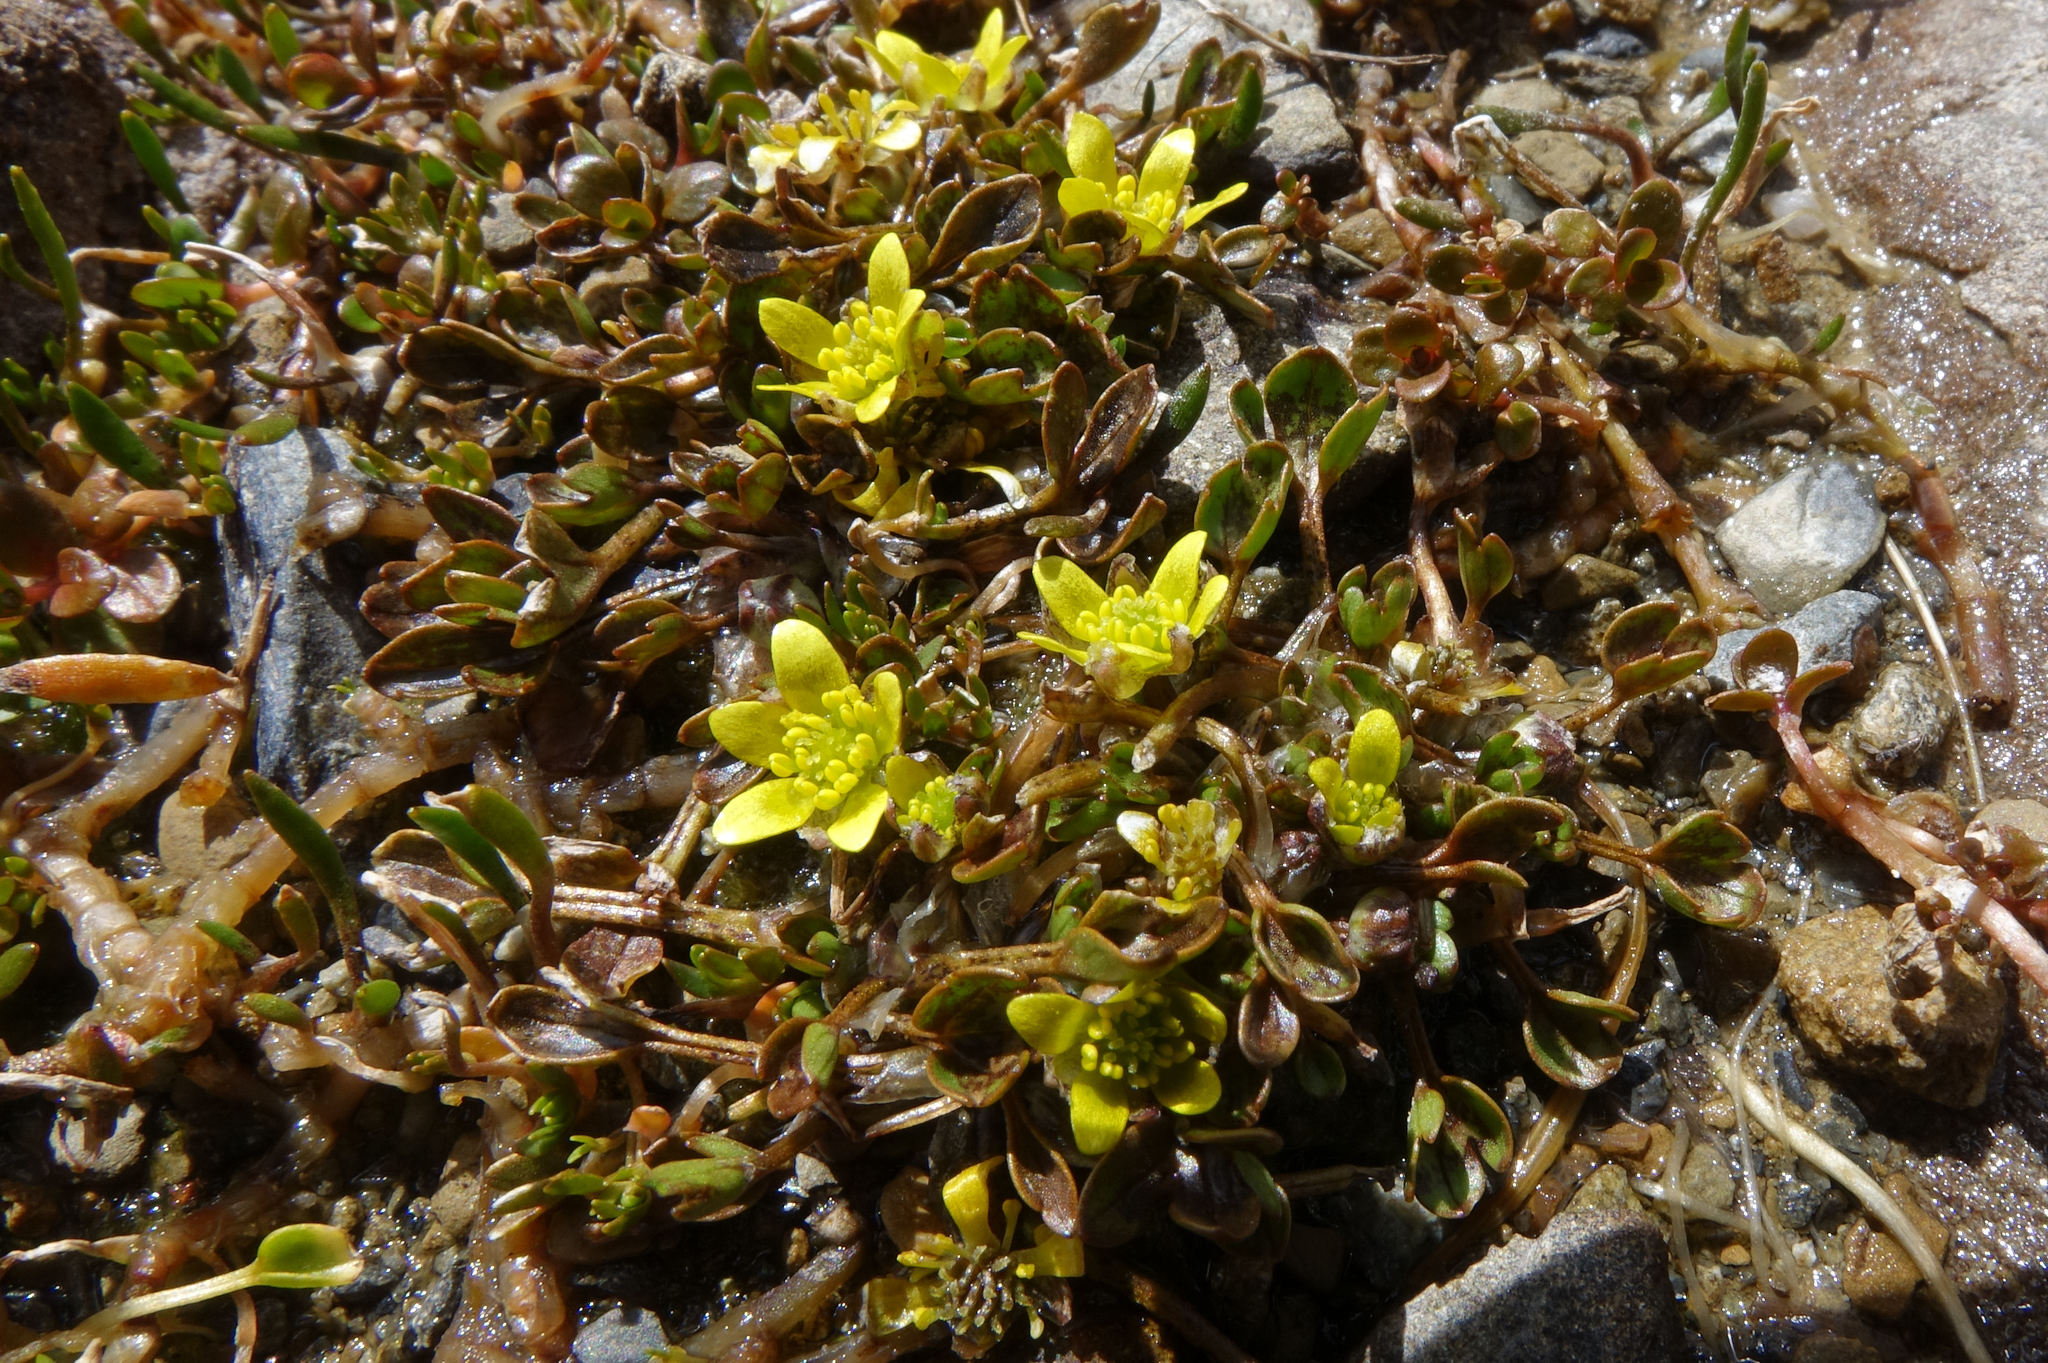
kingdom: Plantae
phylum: Tracheophyta
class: Magnoliopsida
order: Ranunculales
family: Ranunculaceae
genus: Ranunculus
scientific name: Ranunculus maculatus
